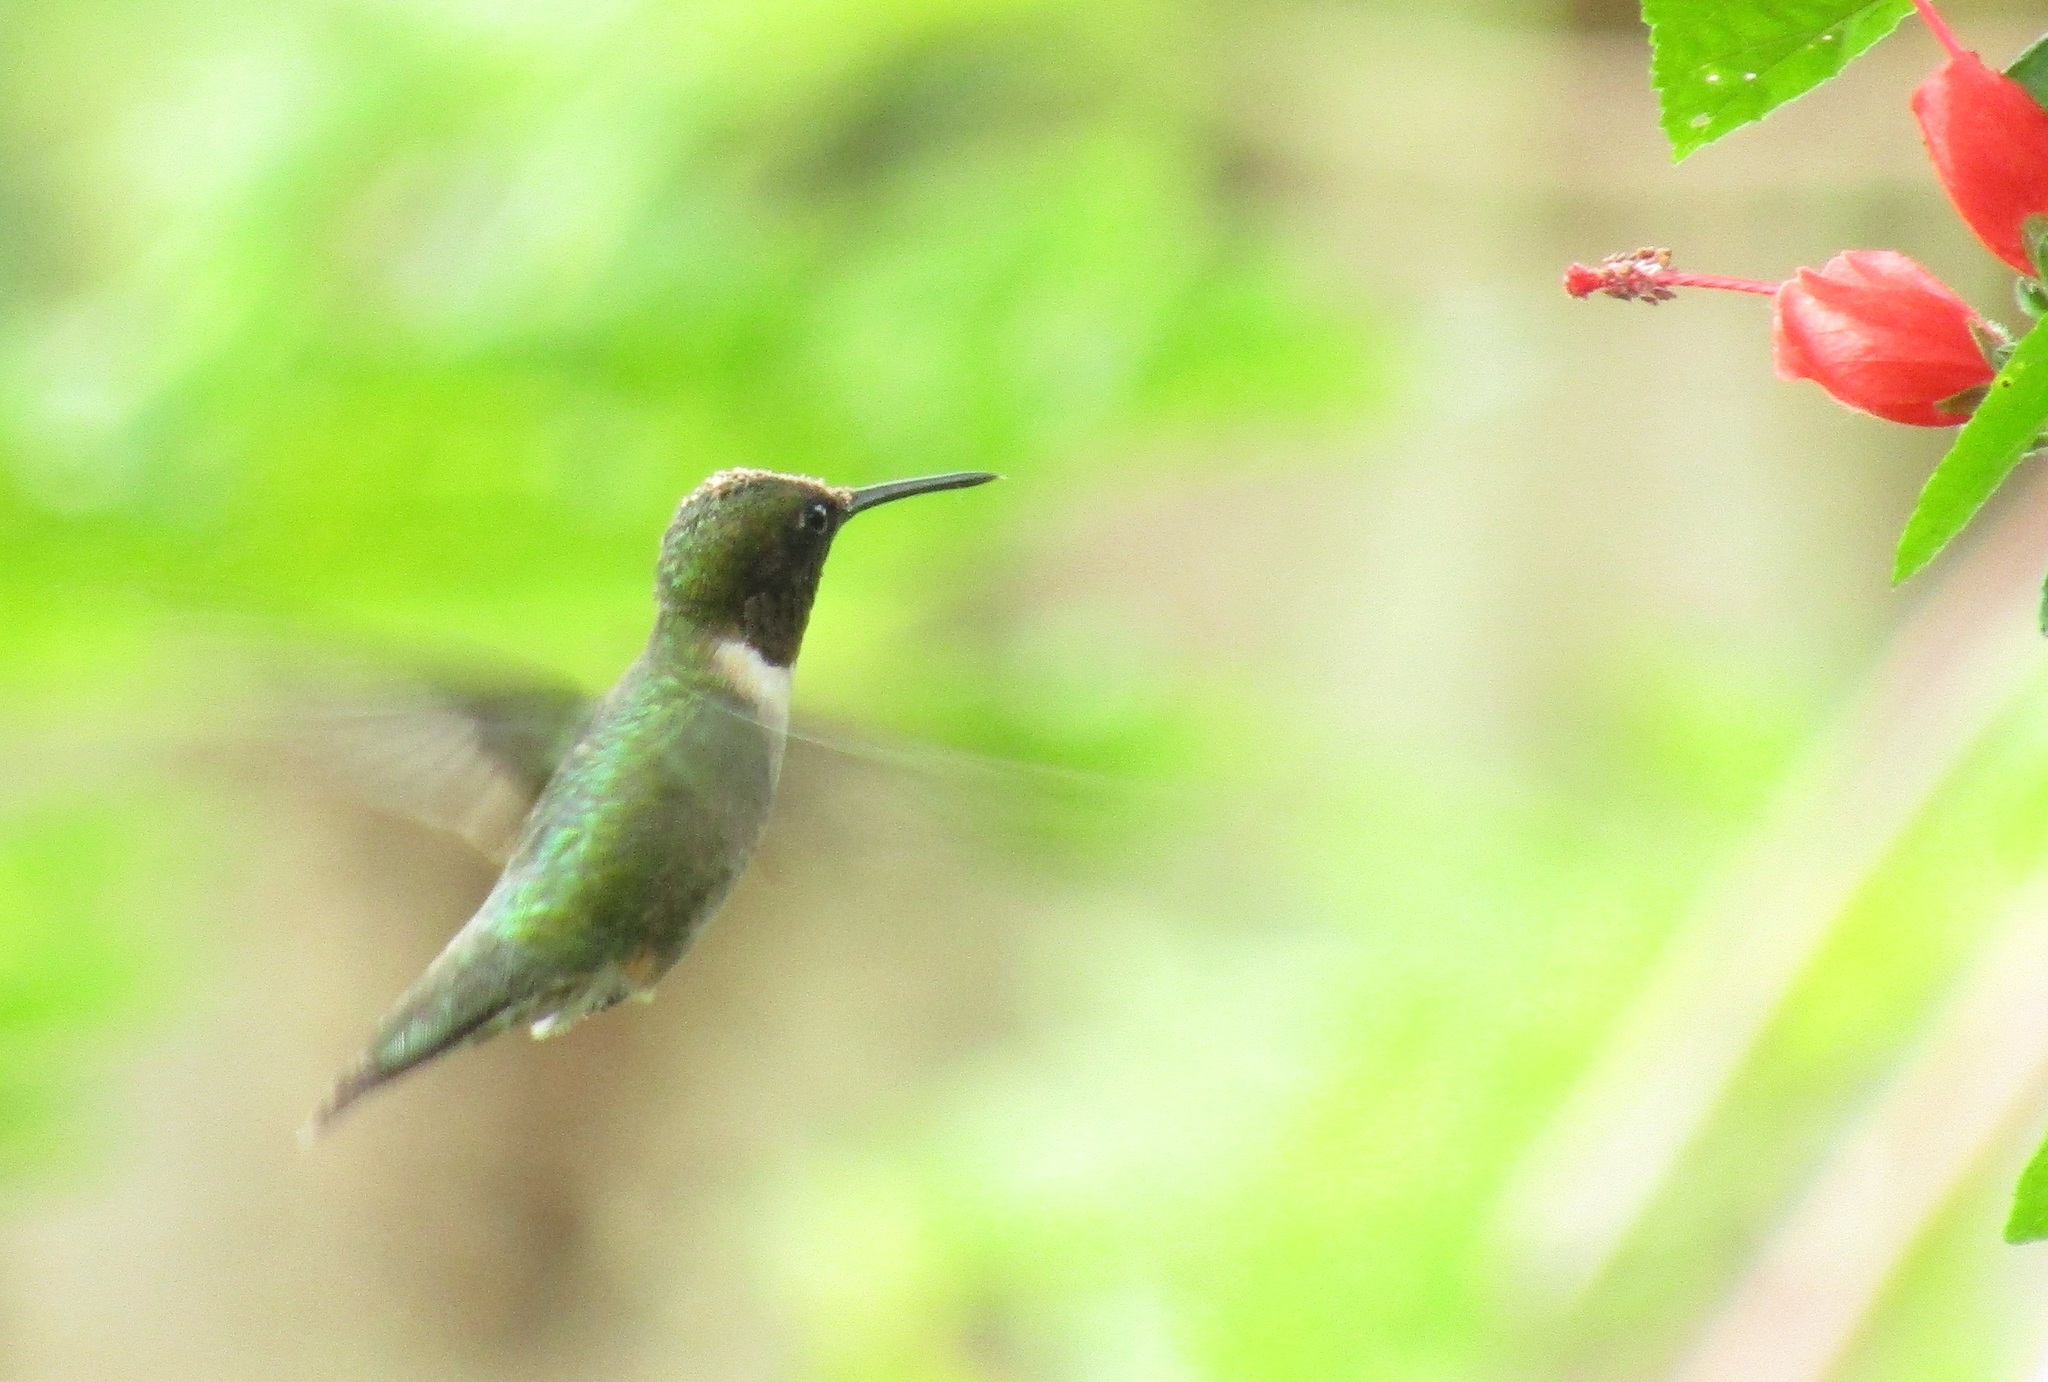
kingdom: Animalia
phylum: Chordata
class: Aves
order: Apodiformes
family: Trochilidae
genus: Archilochus
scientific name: Archilochus colubris
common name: Ruby-throated hummingbird
